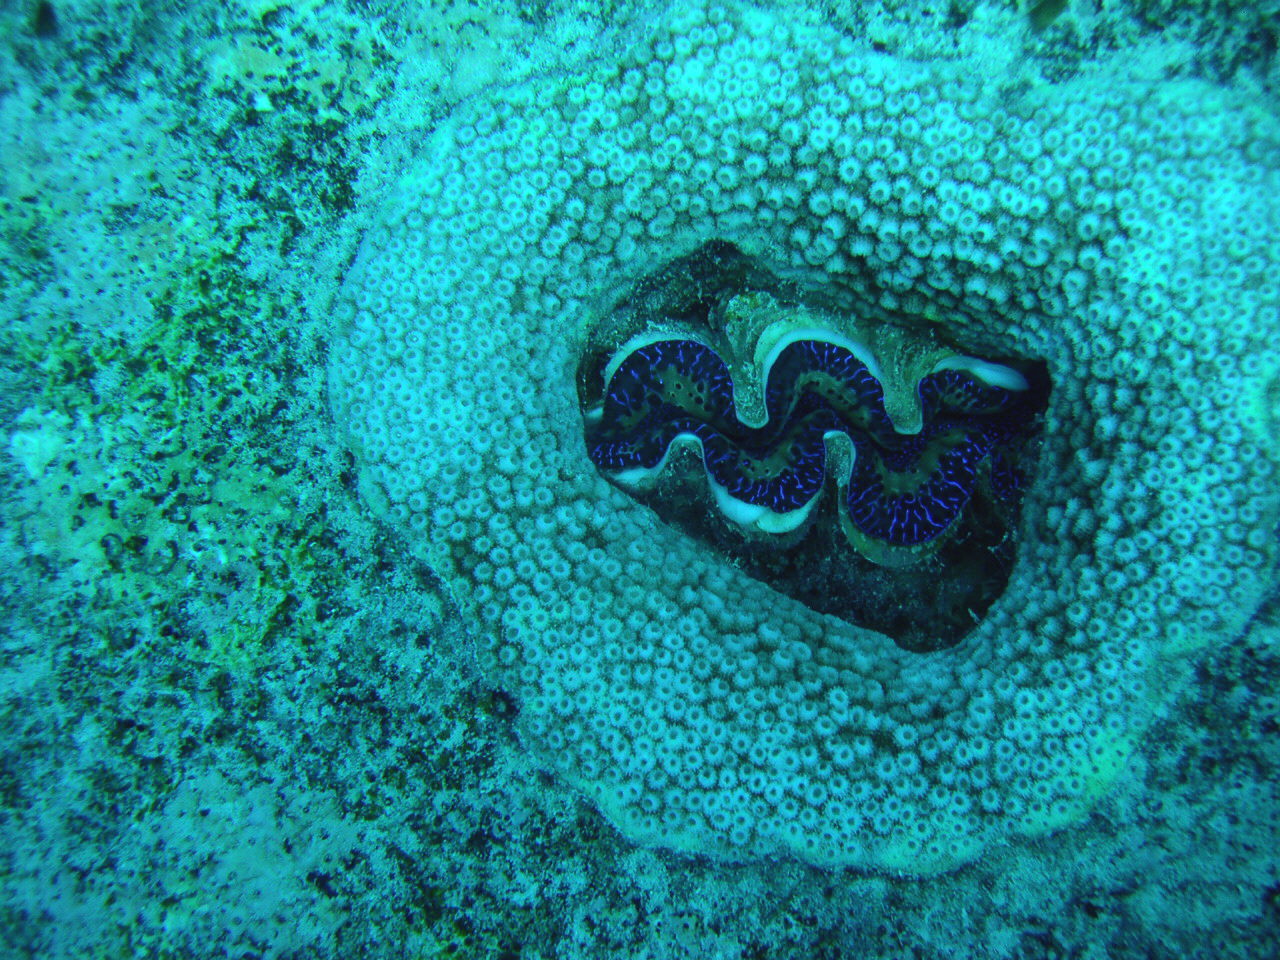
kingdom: Animalia
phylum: Mollusca
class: Bivalvia
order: Cardiida
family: Cardiidae
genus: Tridacna
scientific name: Tridacna maxima
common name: Small giant clam
